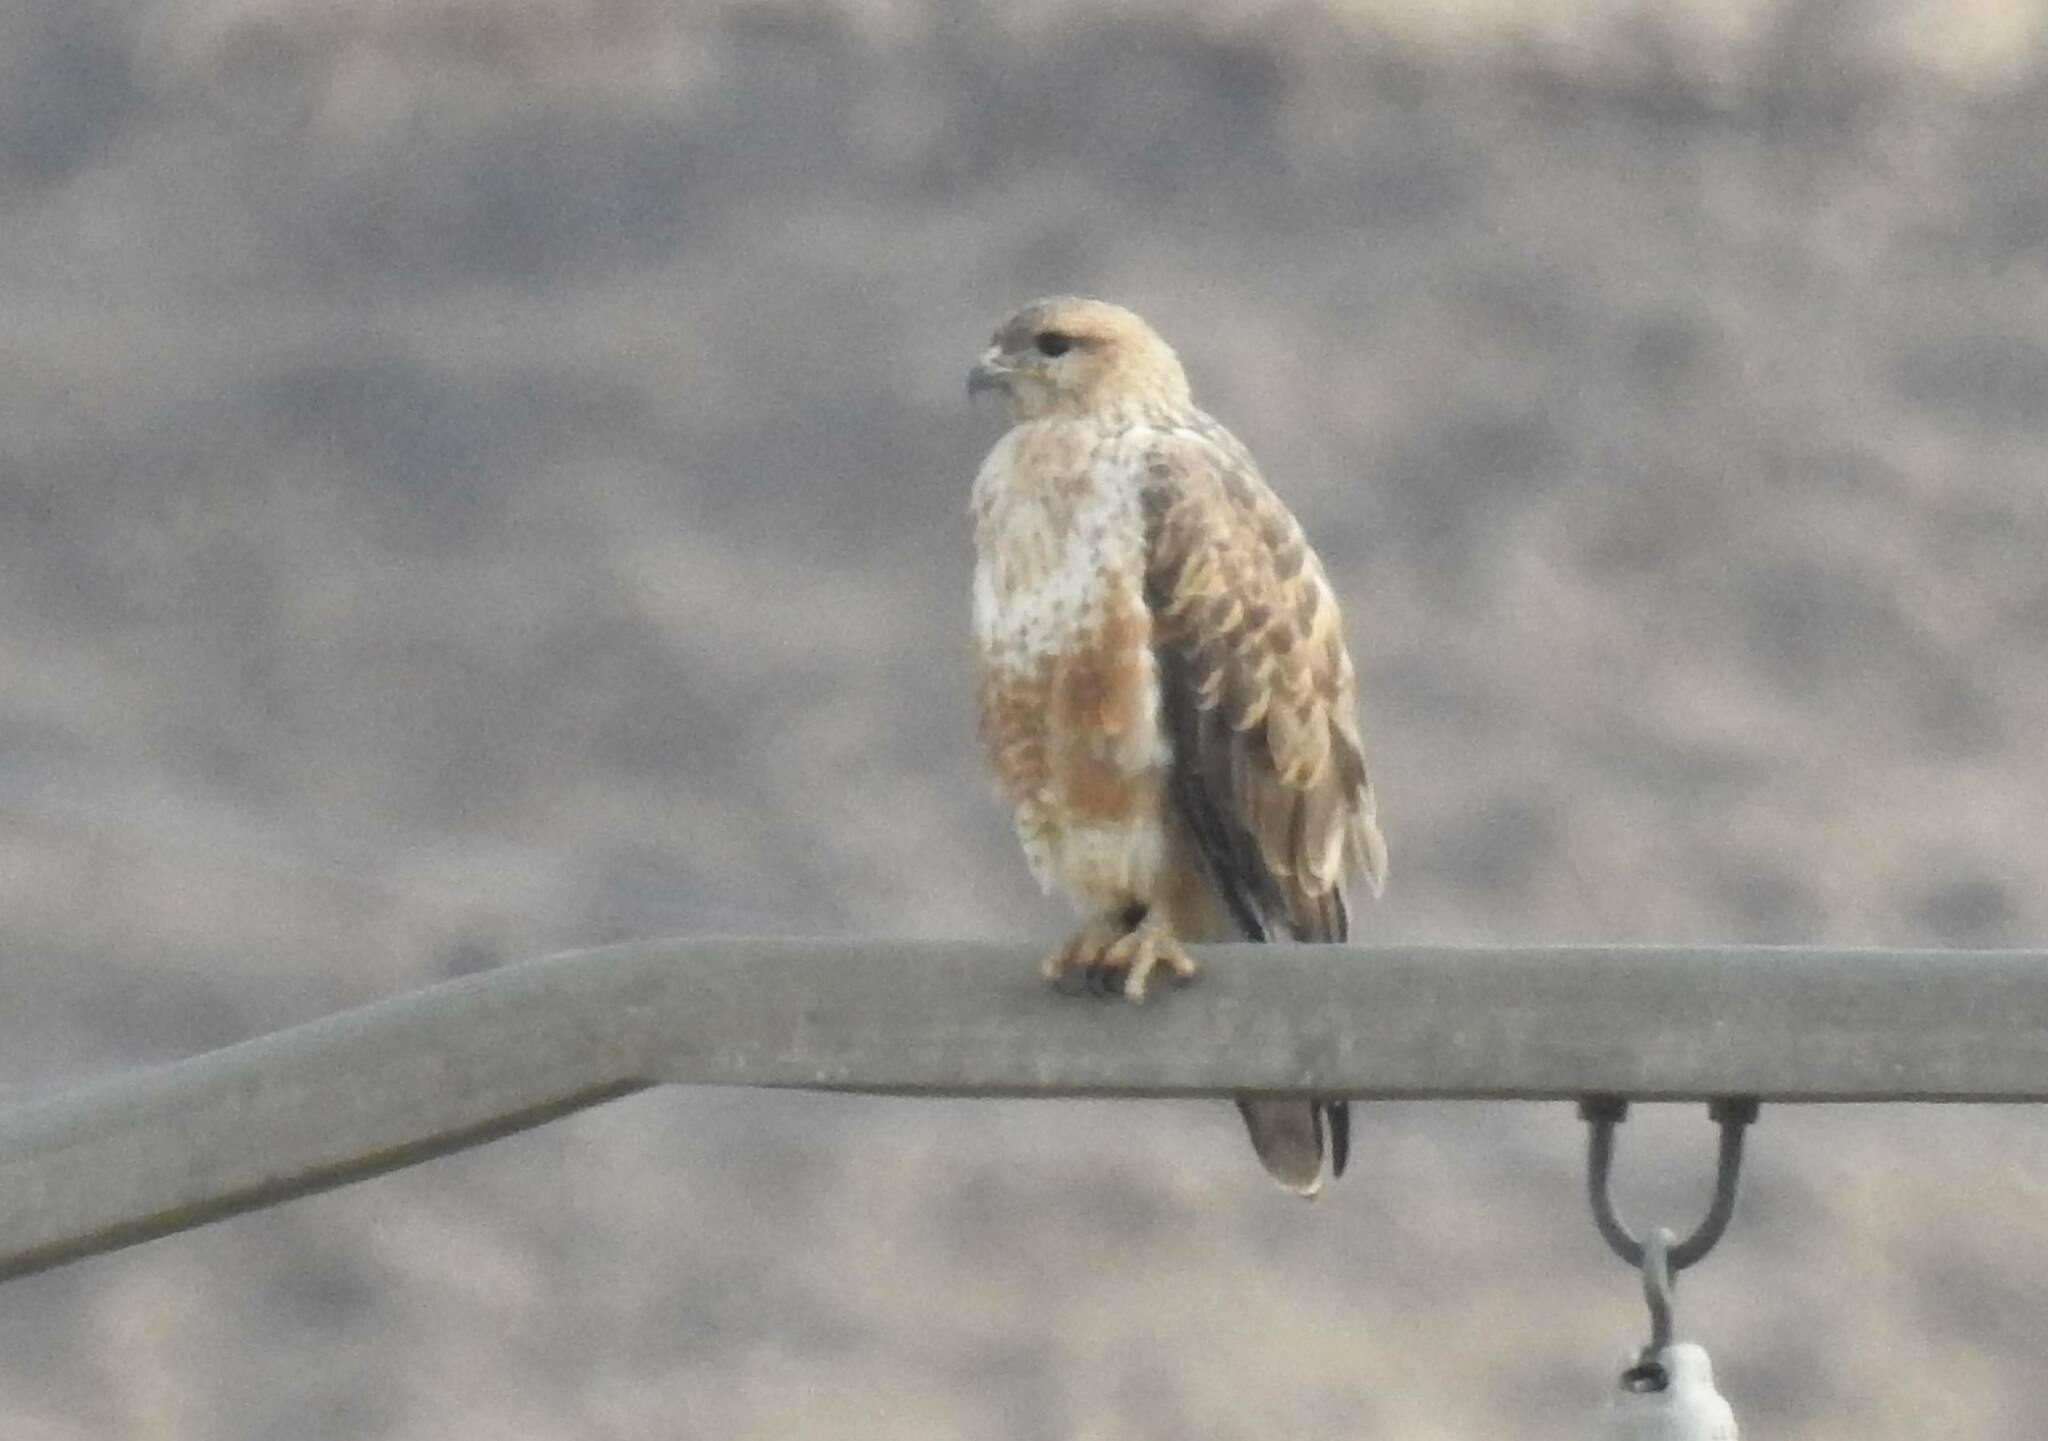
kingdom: Animalia
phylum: Chordata
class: Aves
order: Accipitriformes
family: Accipitridae
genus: Buteo
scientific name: Buteo rufinus
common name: Long-legged buzzard
